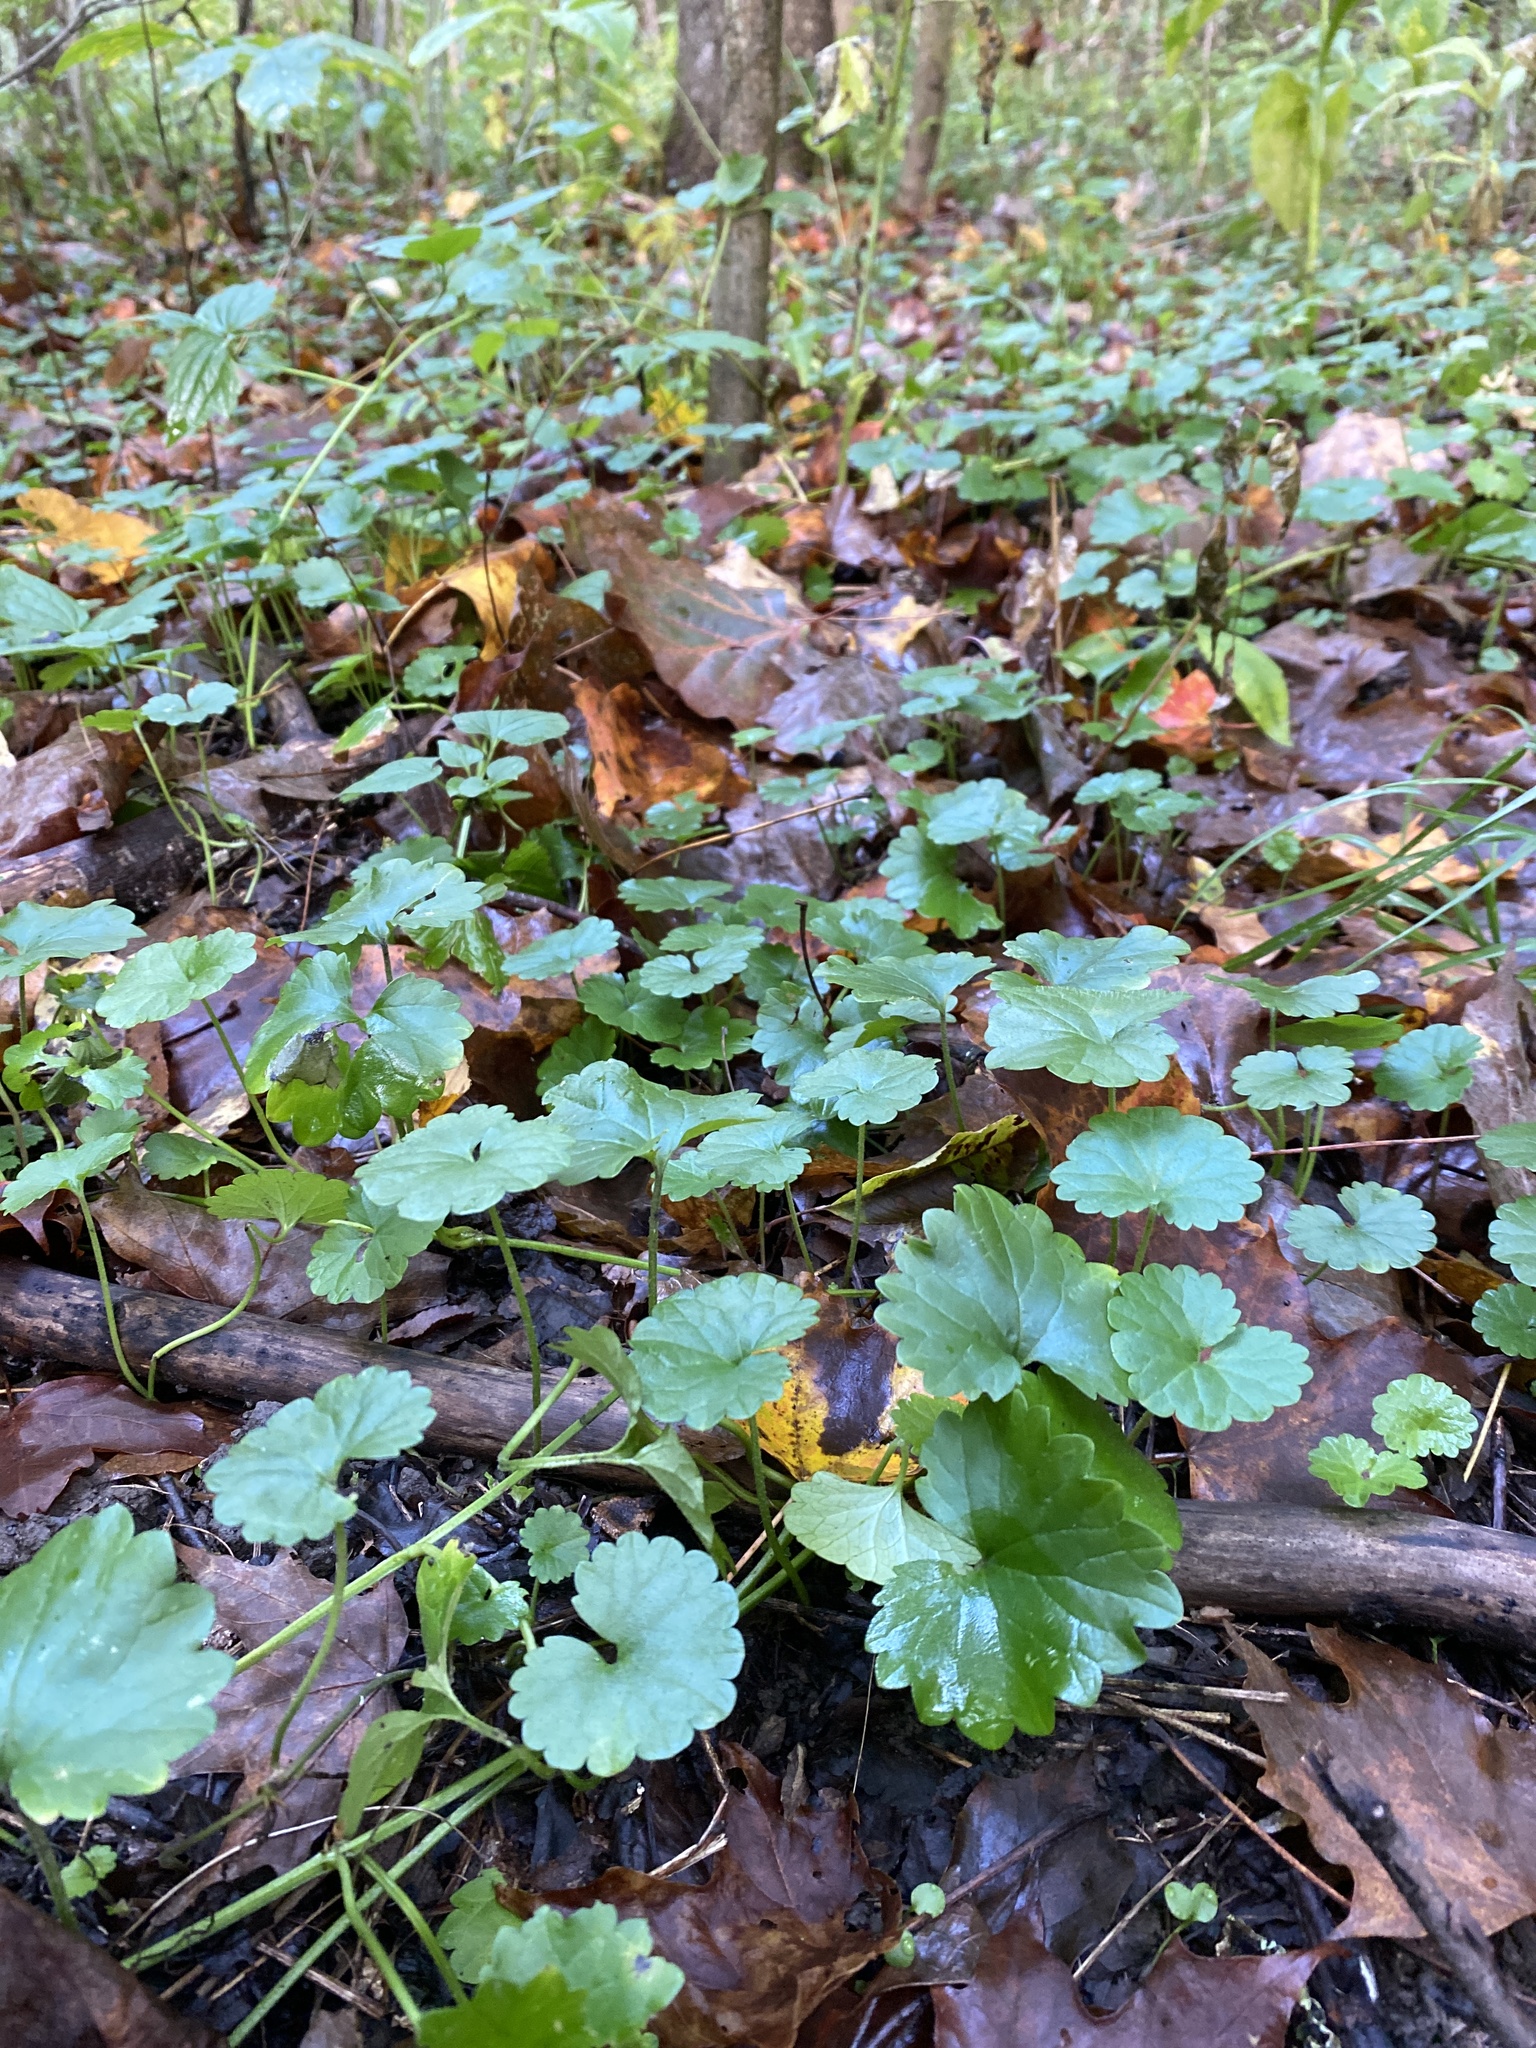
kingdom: Plantae
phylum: Tracheophyta
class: Magnoliopsida
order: Lamiales
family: Lamiaceae
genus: Glechoma
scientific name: Glechoma hederacea
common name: Ground ivy
